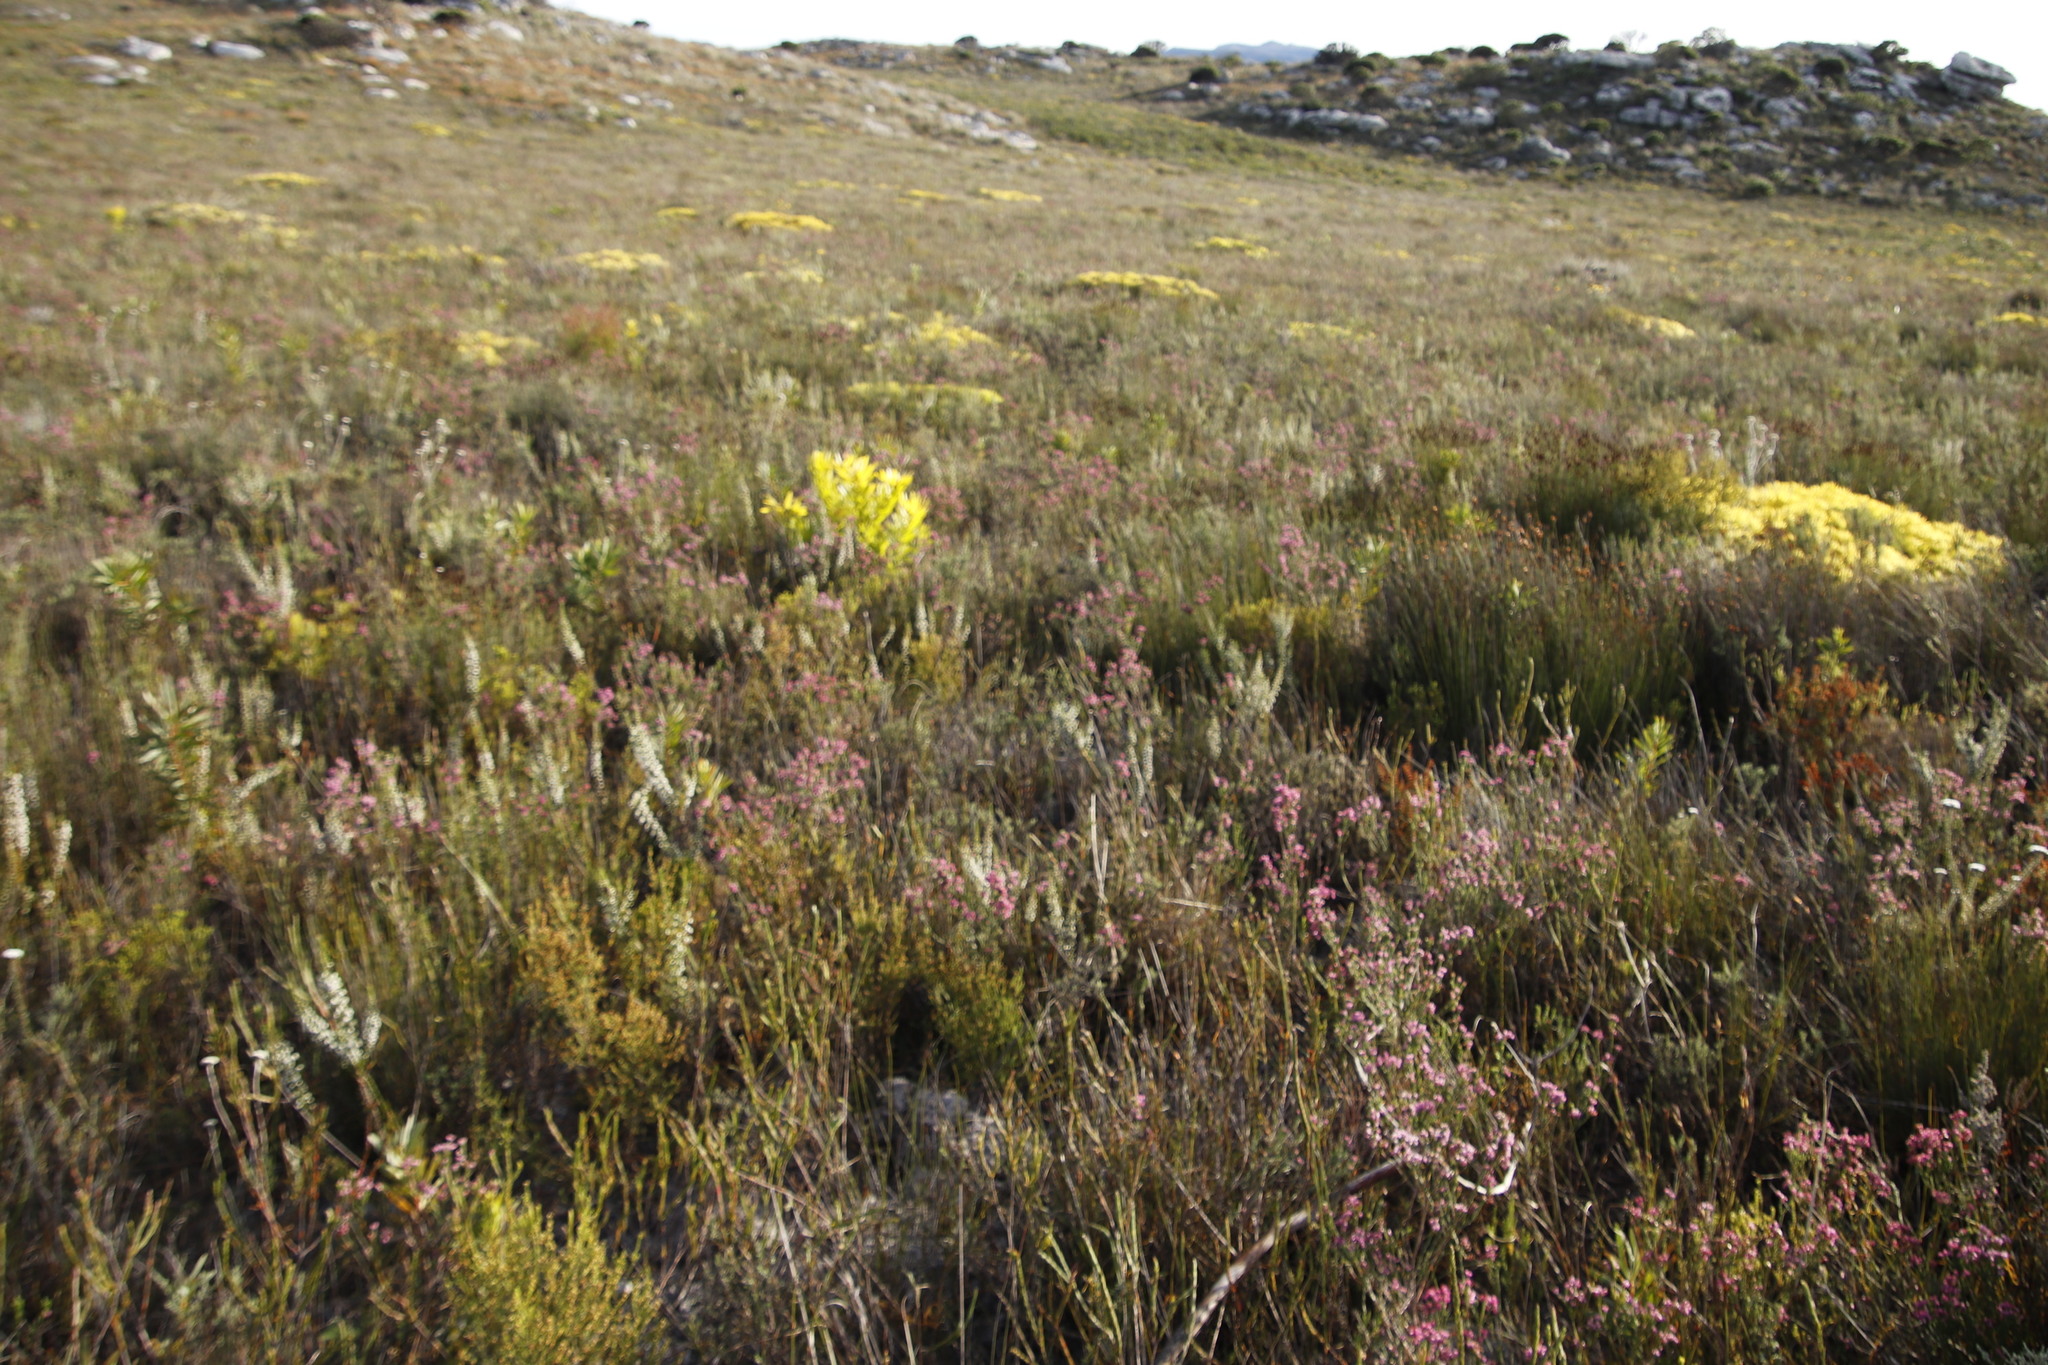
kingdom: Plantae
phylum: Tracheophyta
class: Magnoliopsida
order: Ericales
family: Ericaceae
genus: Erica
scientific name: Erica corifolia
